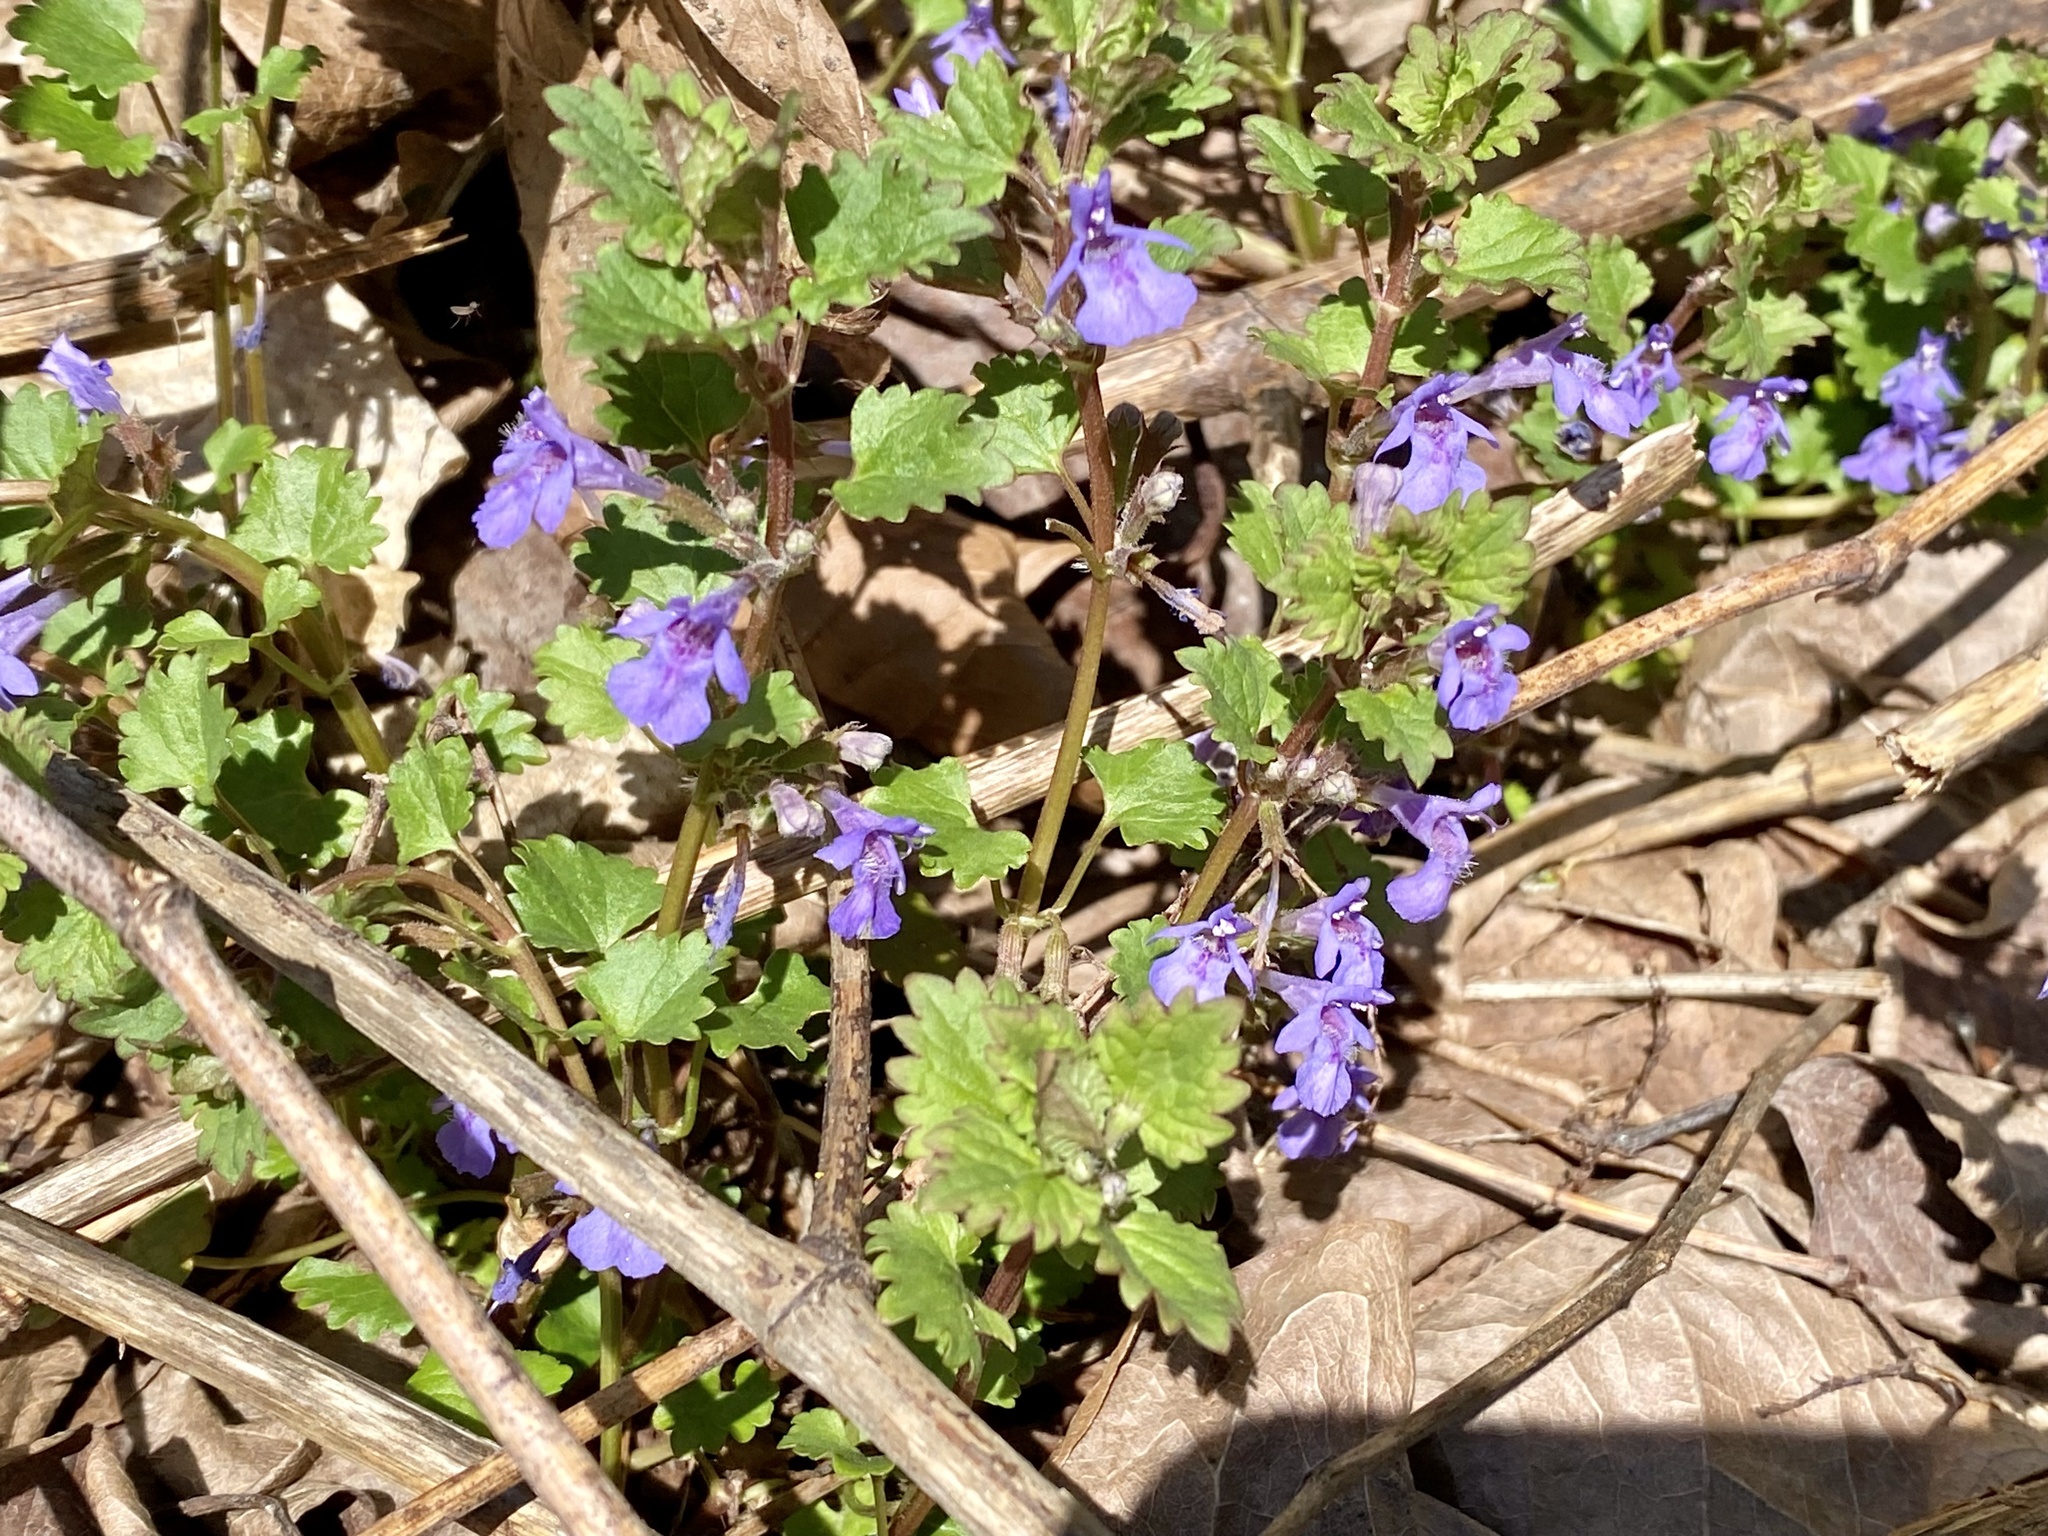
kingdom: Plantae
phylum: Tracheophyta
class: Magnoliopsida
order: Lamiales
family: Lamiaceae
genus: Glechoma
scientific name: Glechoma hederacea
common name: Ground ivy
